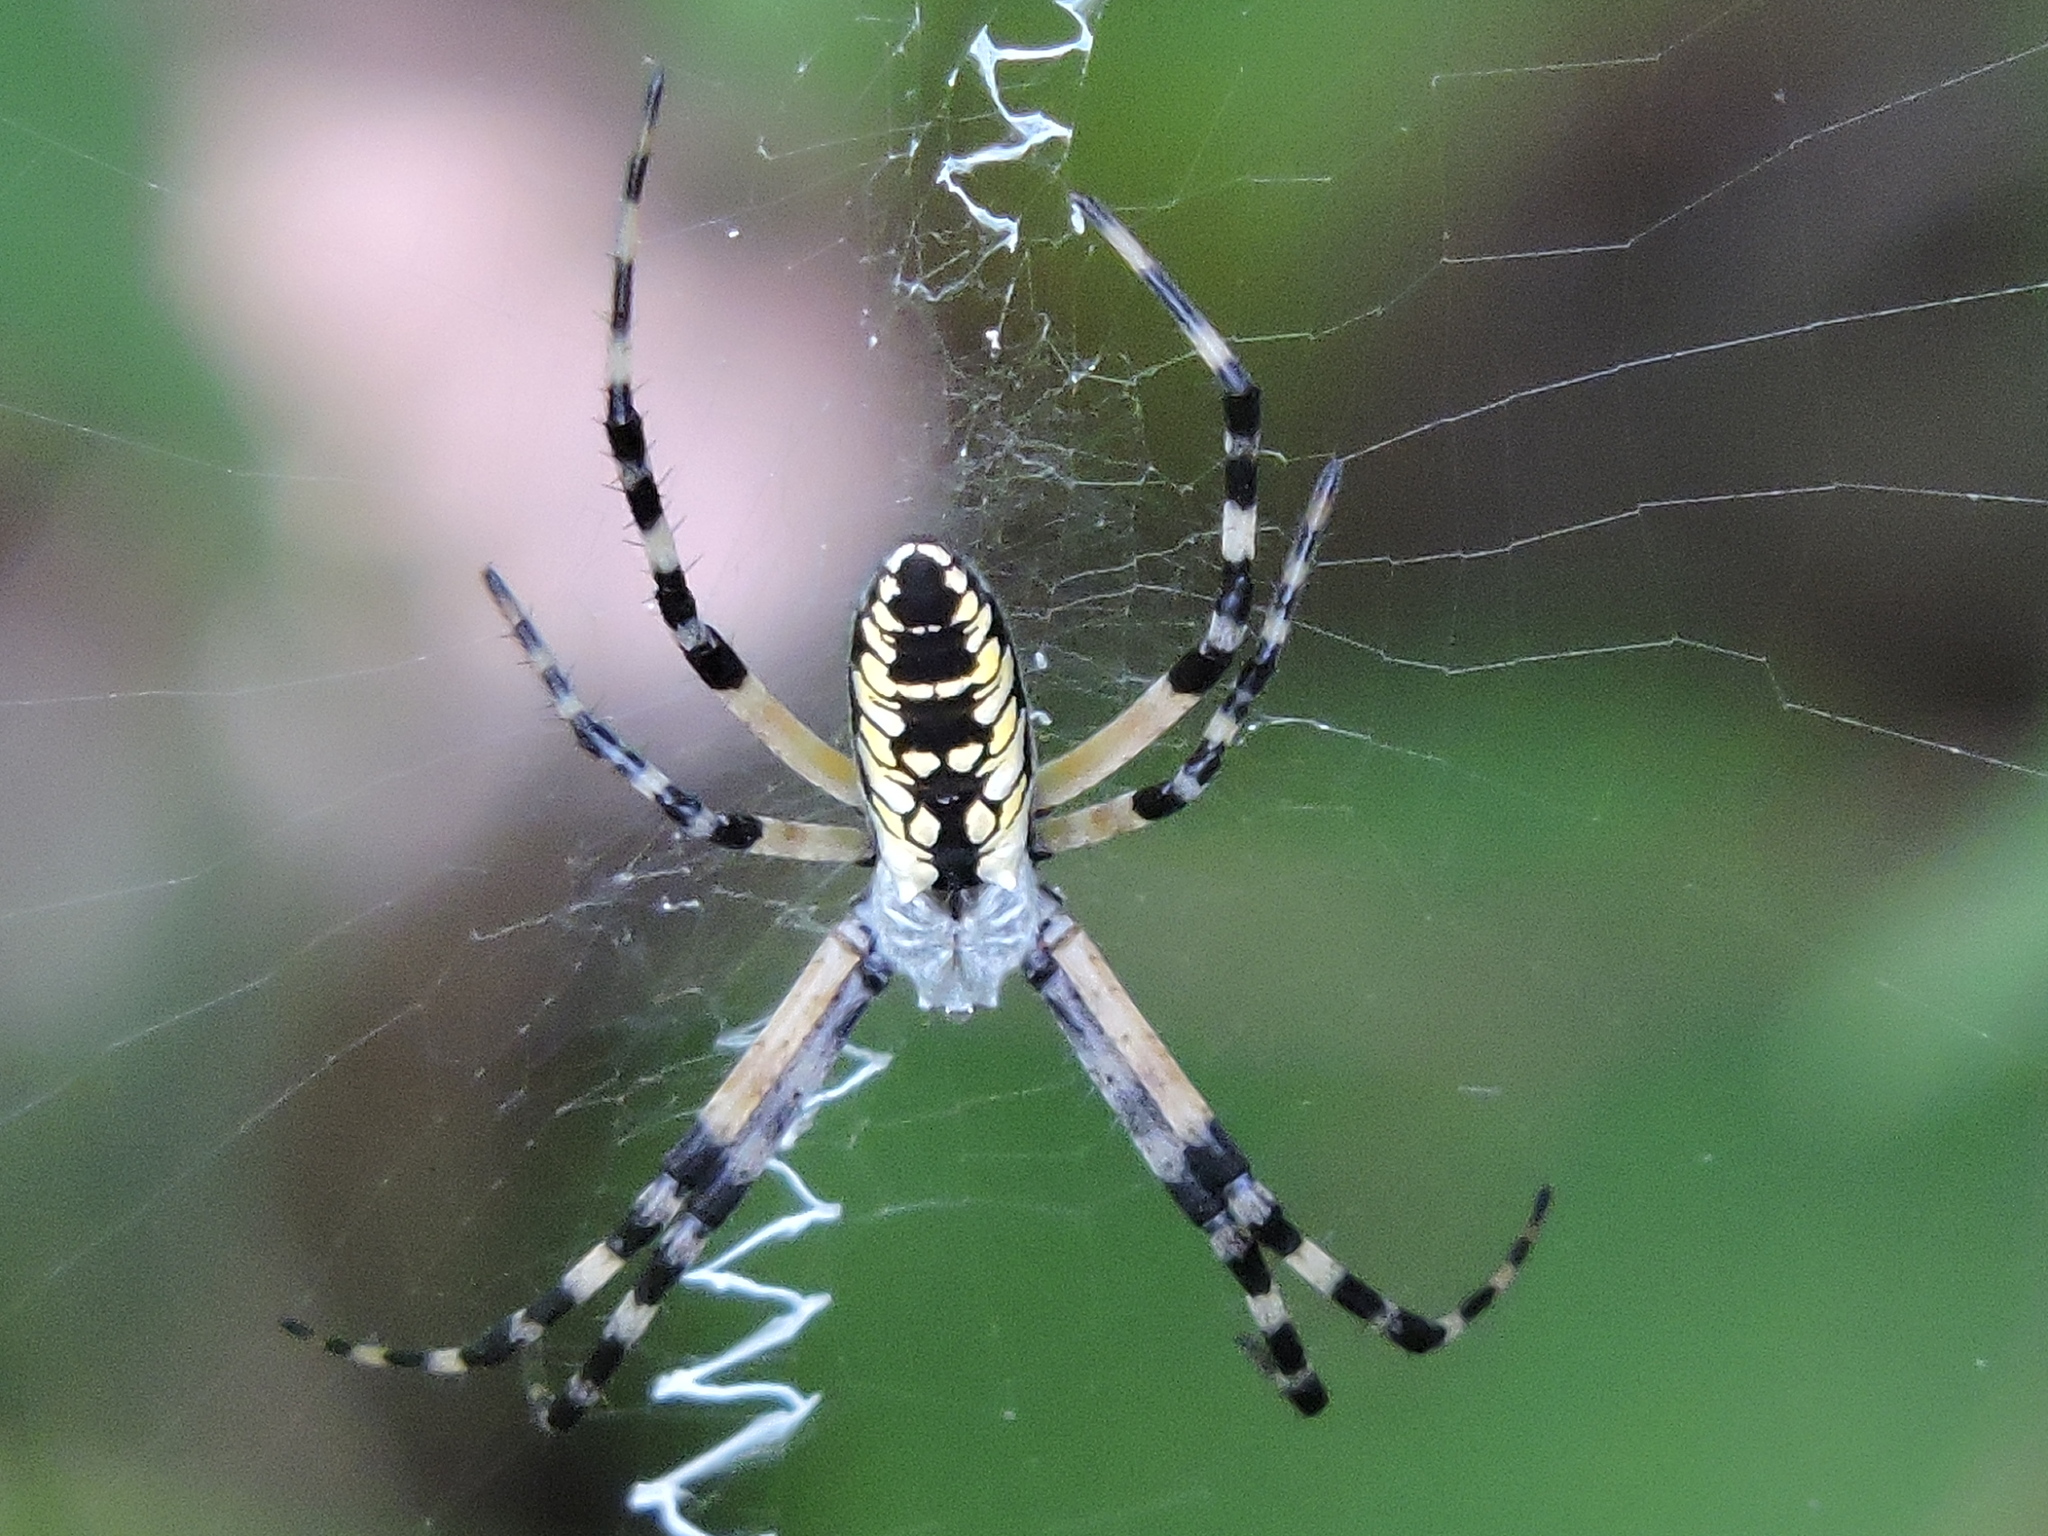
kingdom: Animalia
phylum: Arthropoda
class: Arachnida
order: Araneae
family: Araneidae
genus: Argiope
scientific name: Argiope aurantia
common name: Orb weavers
